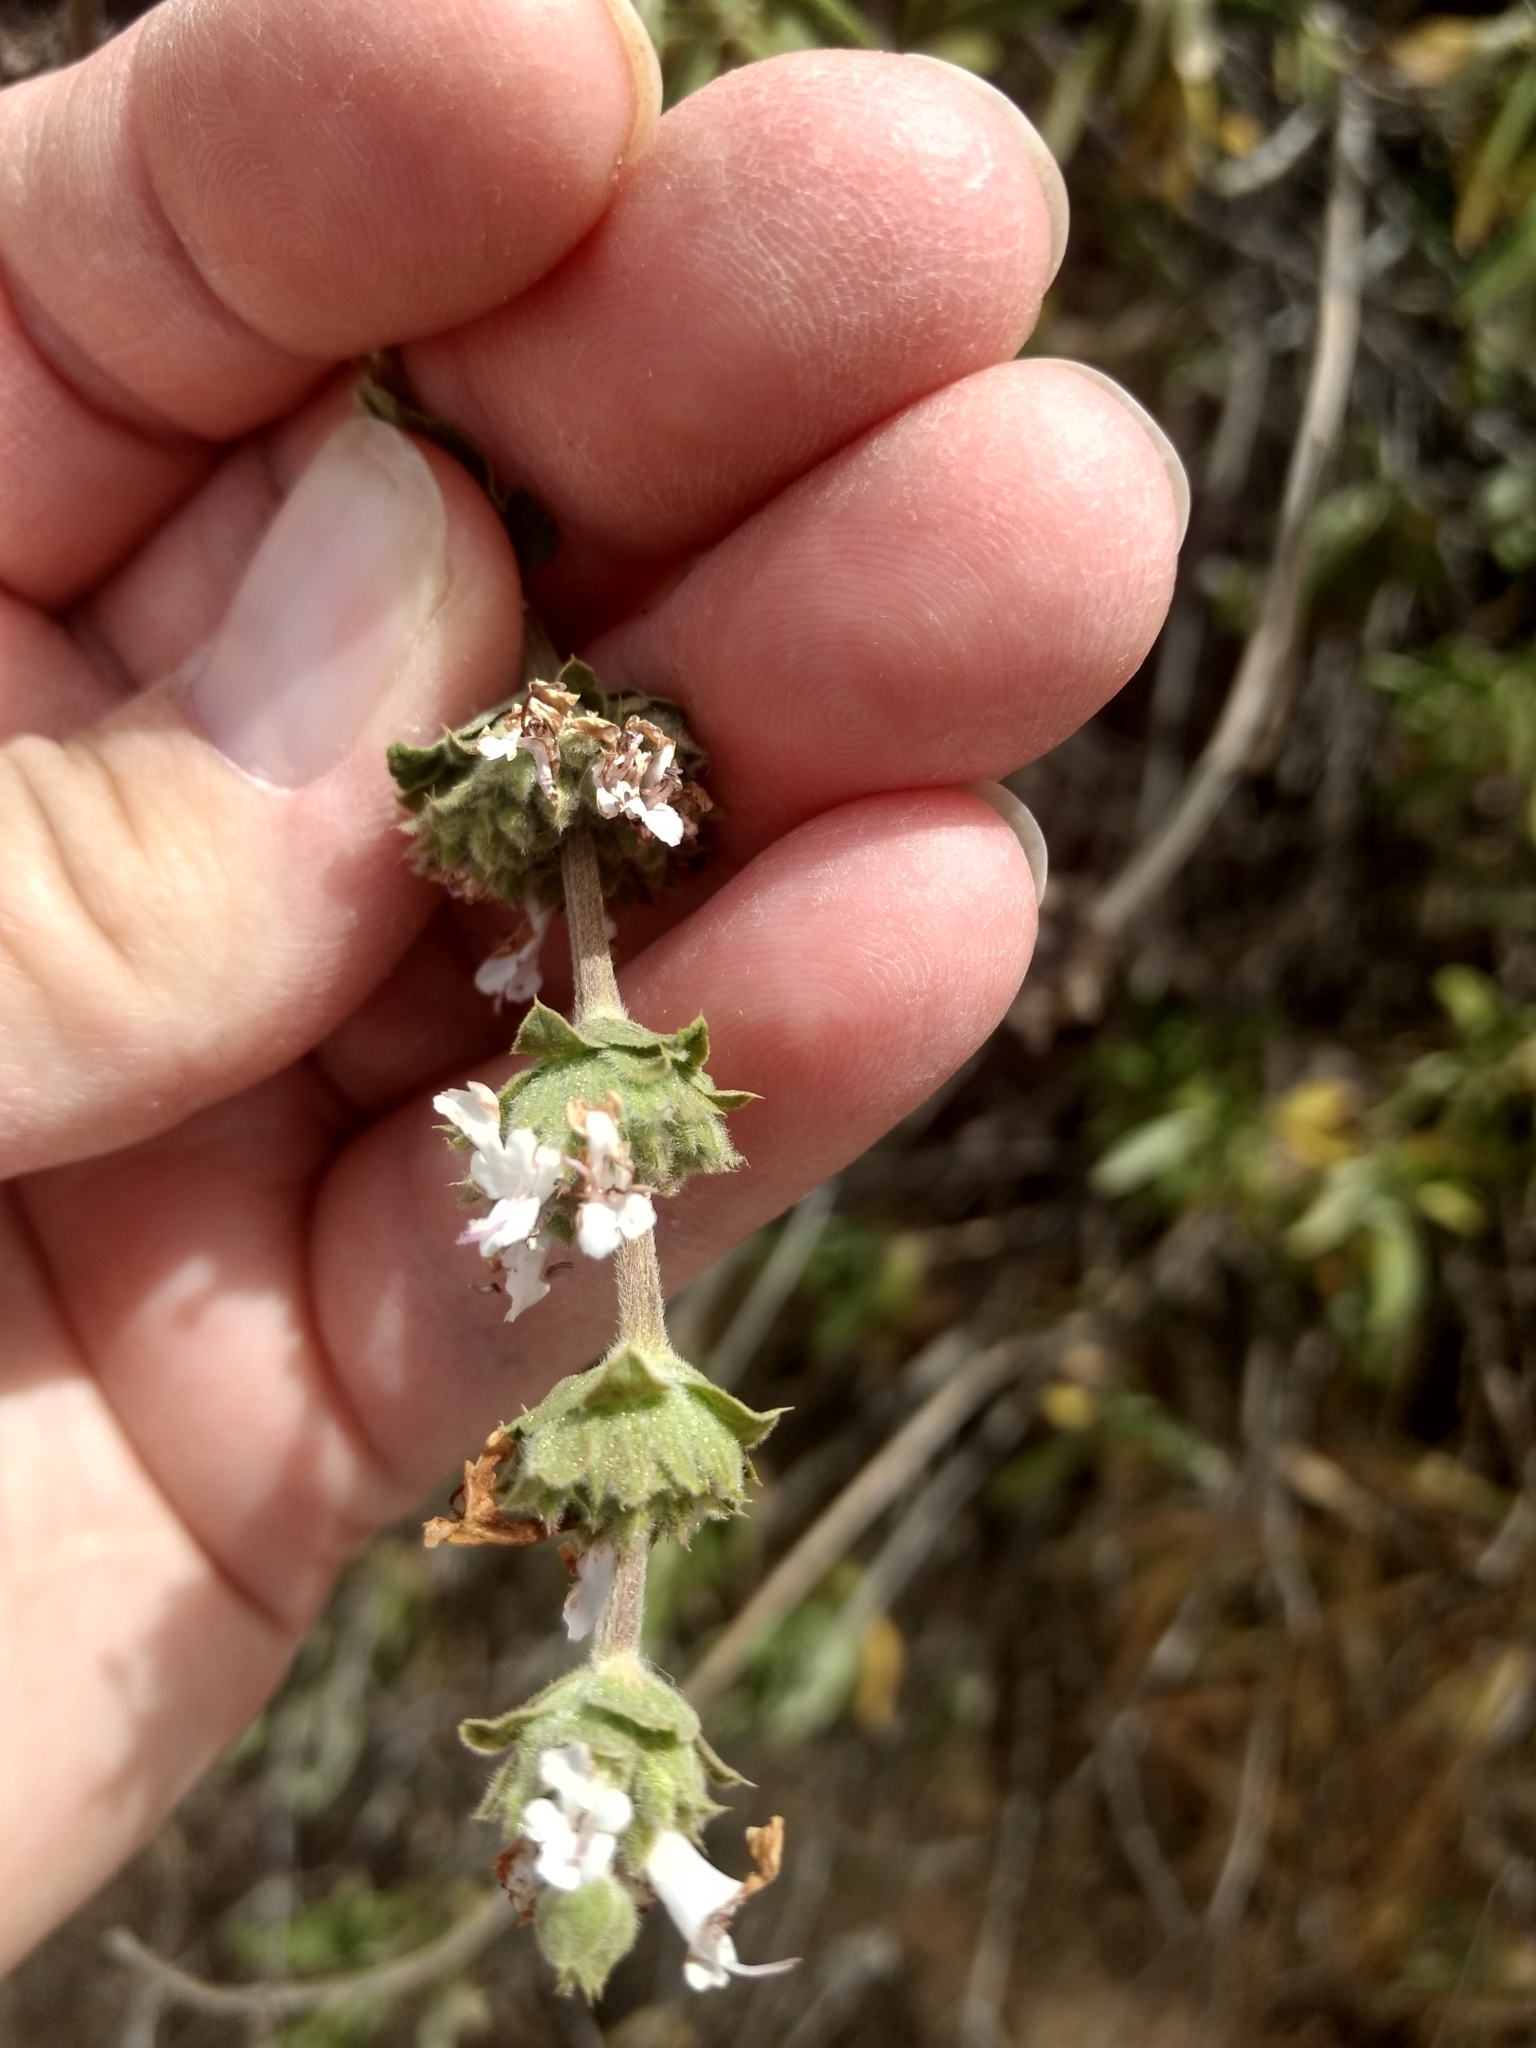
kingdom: Plantae
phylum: Tracheophyta
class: Magnoliopsida
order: Lamiales
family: Lamiaceae
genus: Salvia
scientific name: Salvia mellifera
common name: Black sage
